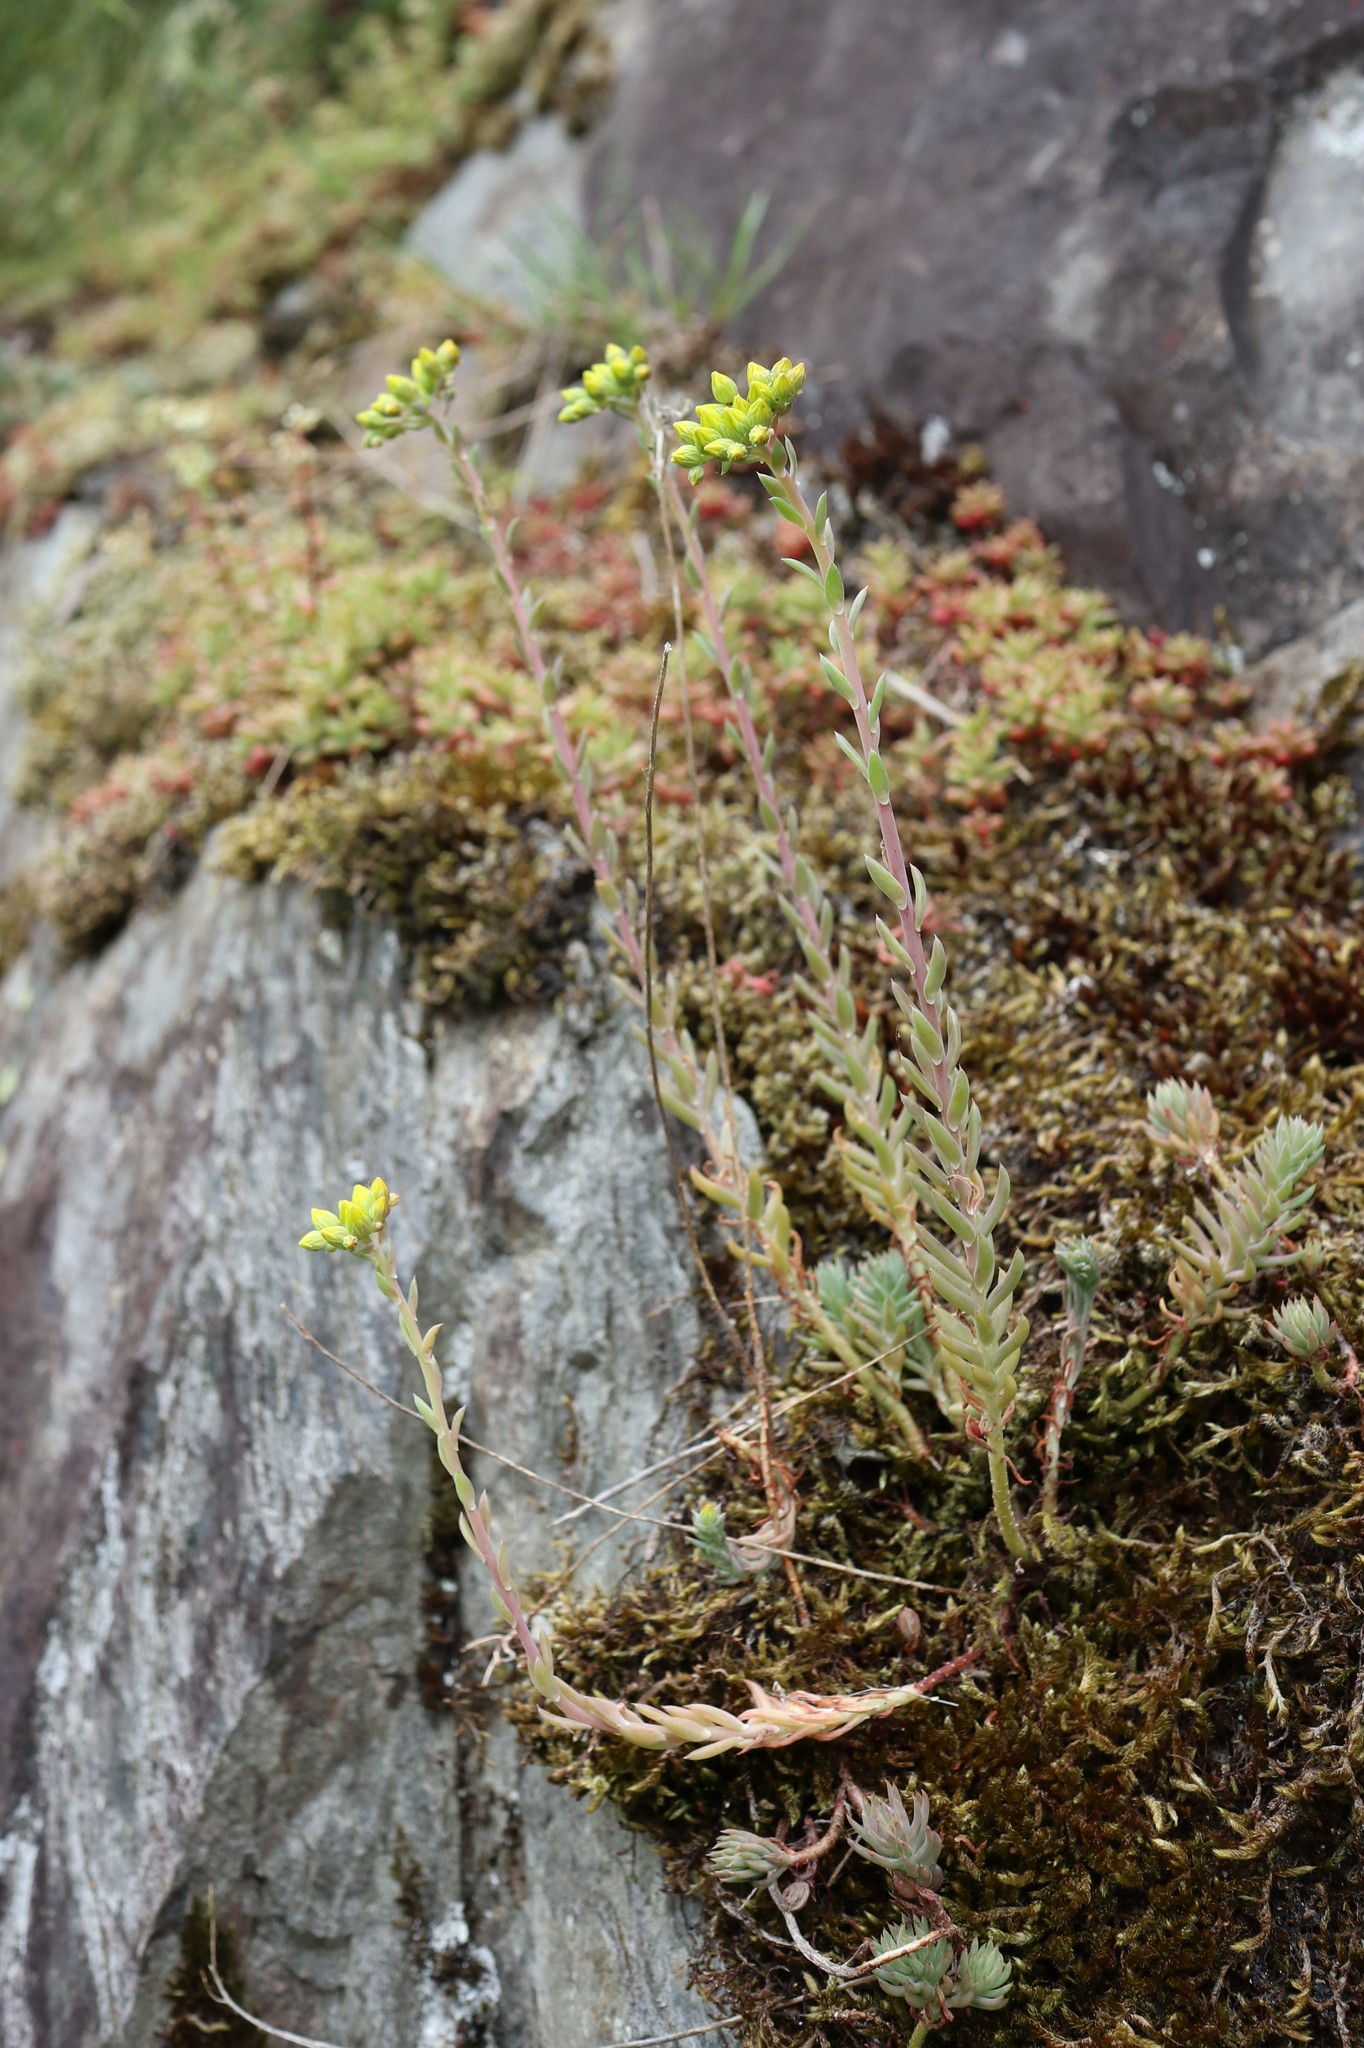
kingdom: Plantae
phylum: Tracheophyta
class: Magnoliopsida
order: Saxifragales
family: Crassulaceae
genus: Petrosedum
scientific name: Petrosedum rupestre
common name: Jenny's stonecrop
